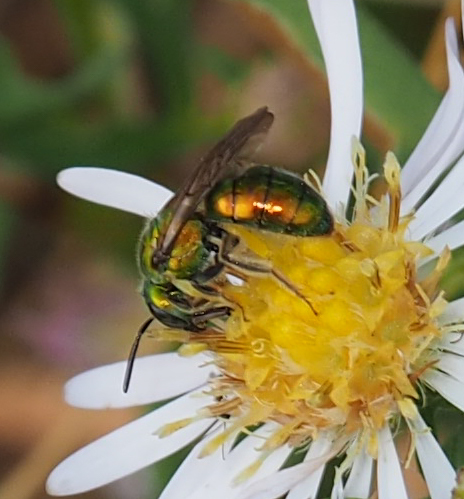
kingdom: Animalia
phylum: Arthropoda
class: Insecta
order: Hymenoptera
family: Halictidae
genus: Augochlora
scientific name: Augochlora pura
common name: Pure green sweat bee
